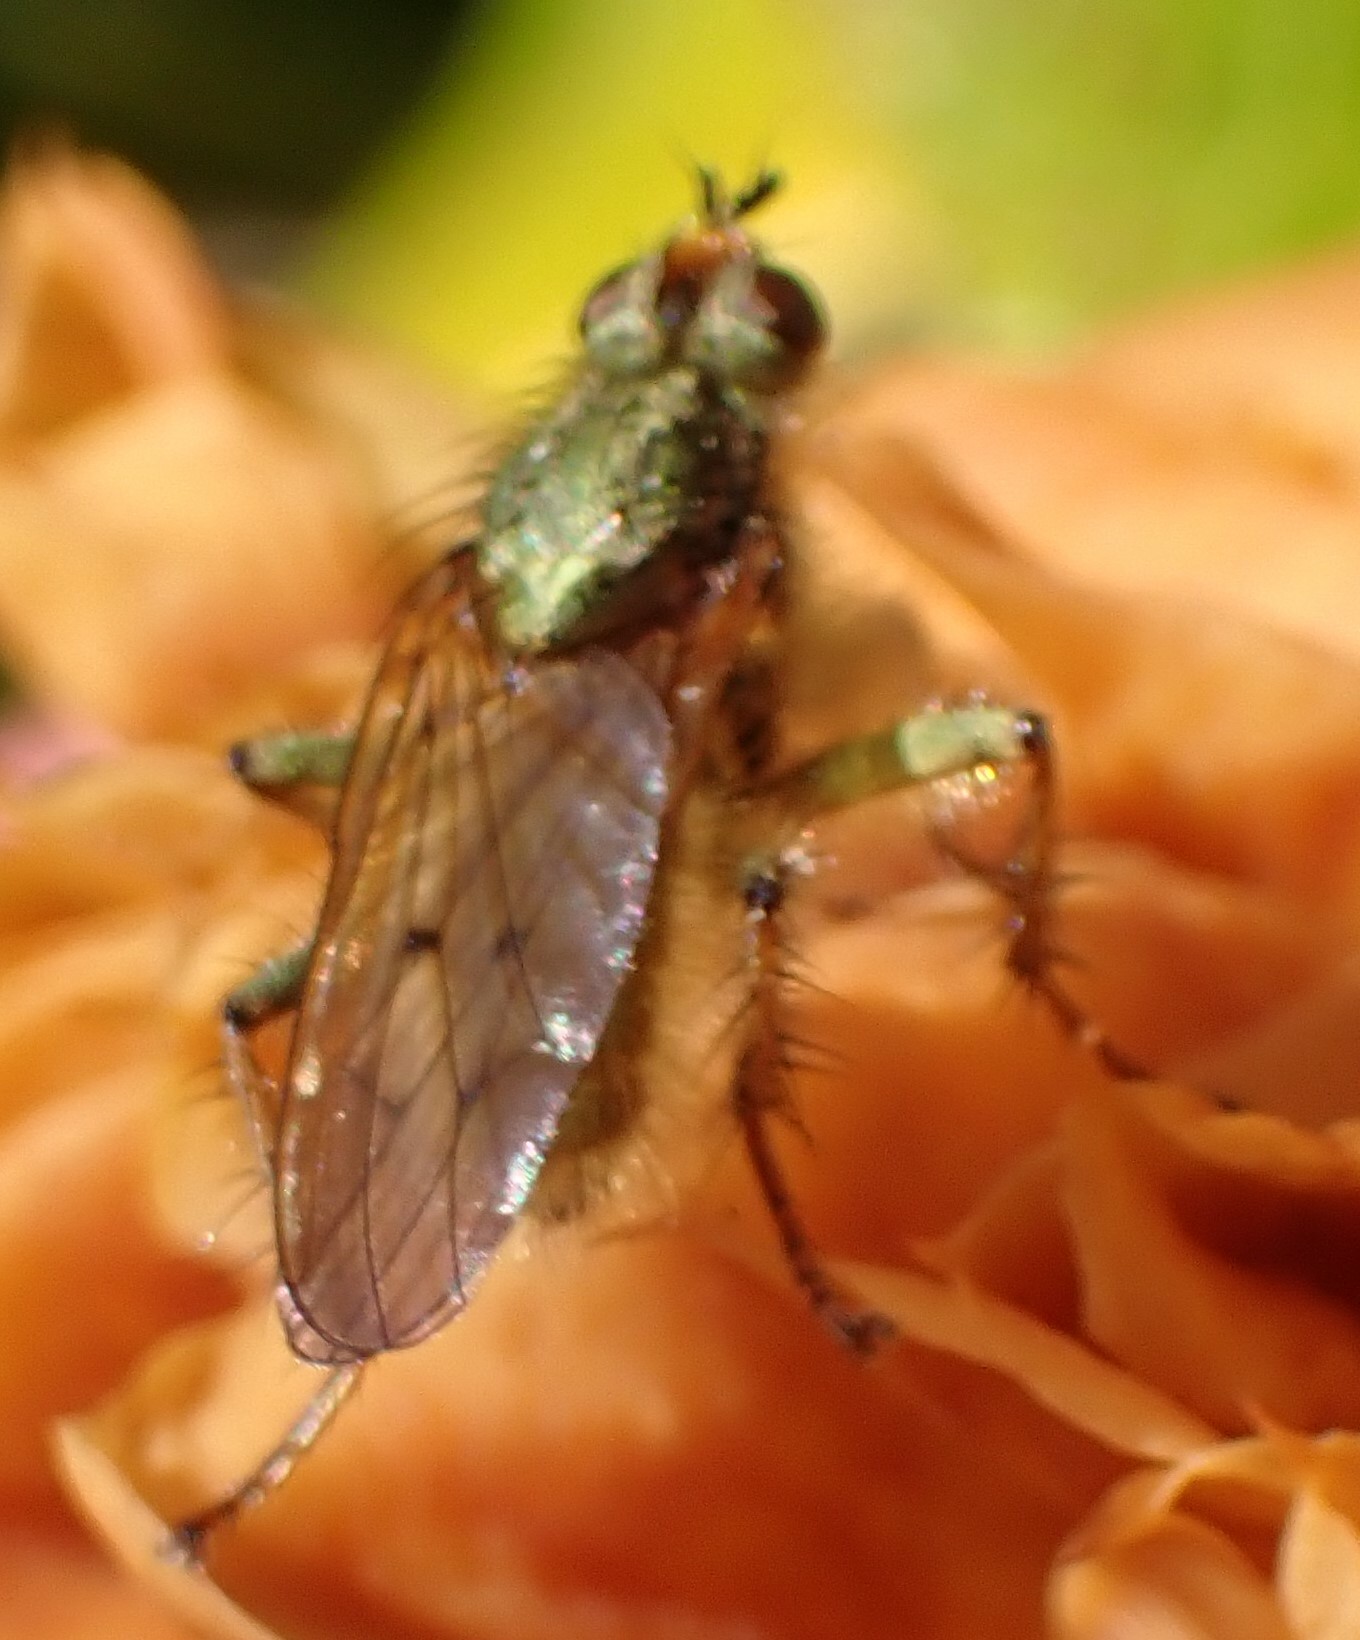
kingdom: Animalia
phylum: Arthropoda
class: Insecta
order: Diptera
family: Scathophagidae
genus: Scathophaga
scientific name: Scathophaga stercoraria
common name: Yellow dung fly
